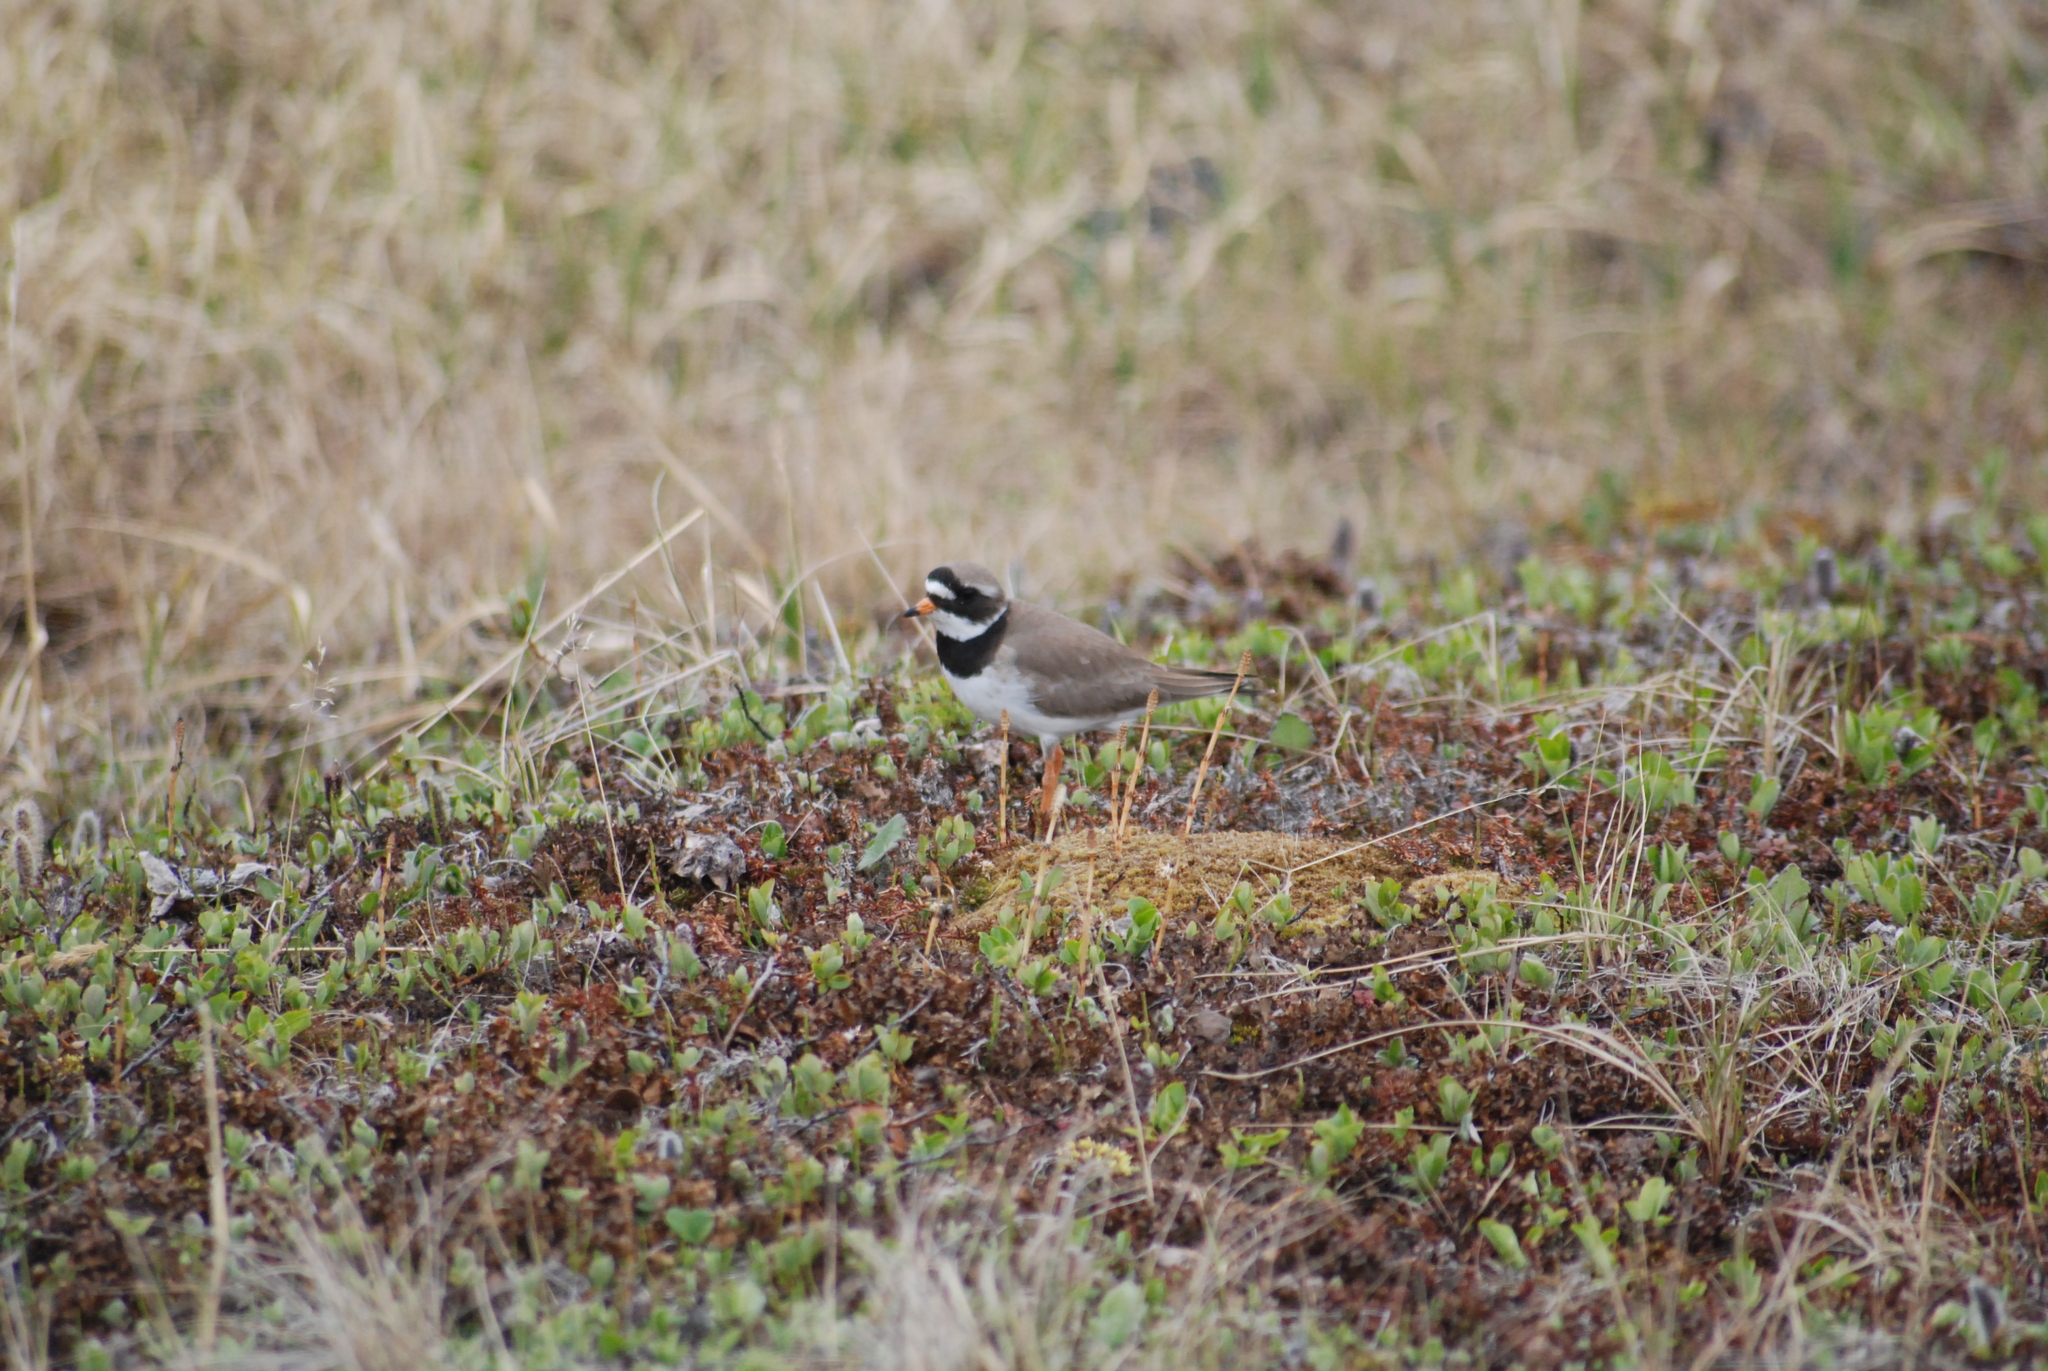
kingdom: Animalia
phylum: Chordata
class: Aves
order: Charadriiformes
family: Charadriidae
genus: Charadrius
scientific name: Charadrius hiaticula
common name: Common ringed plover
